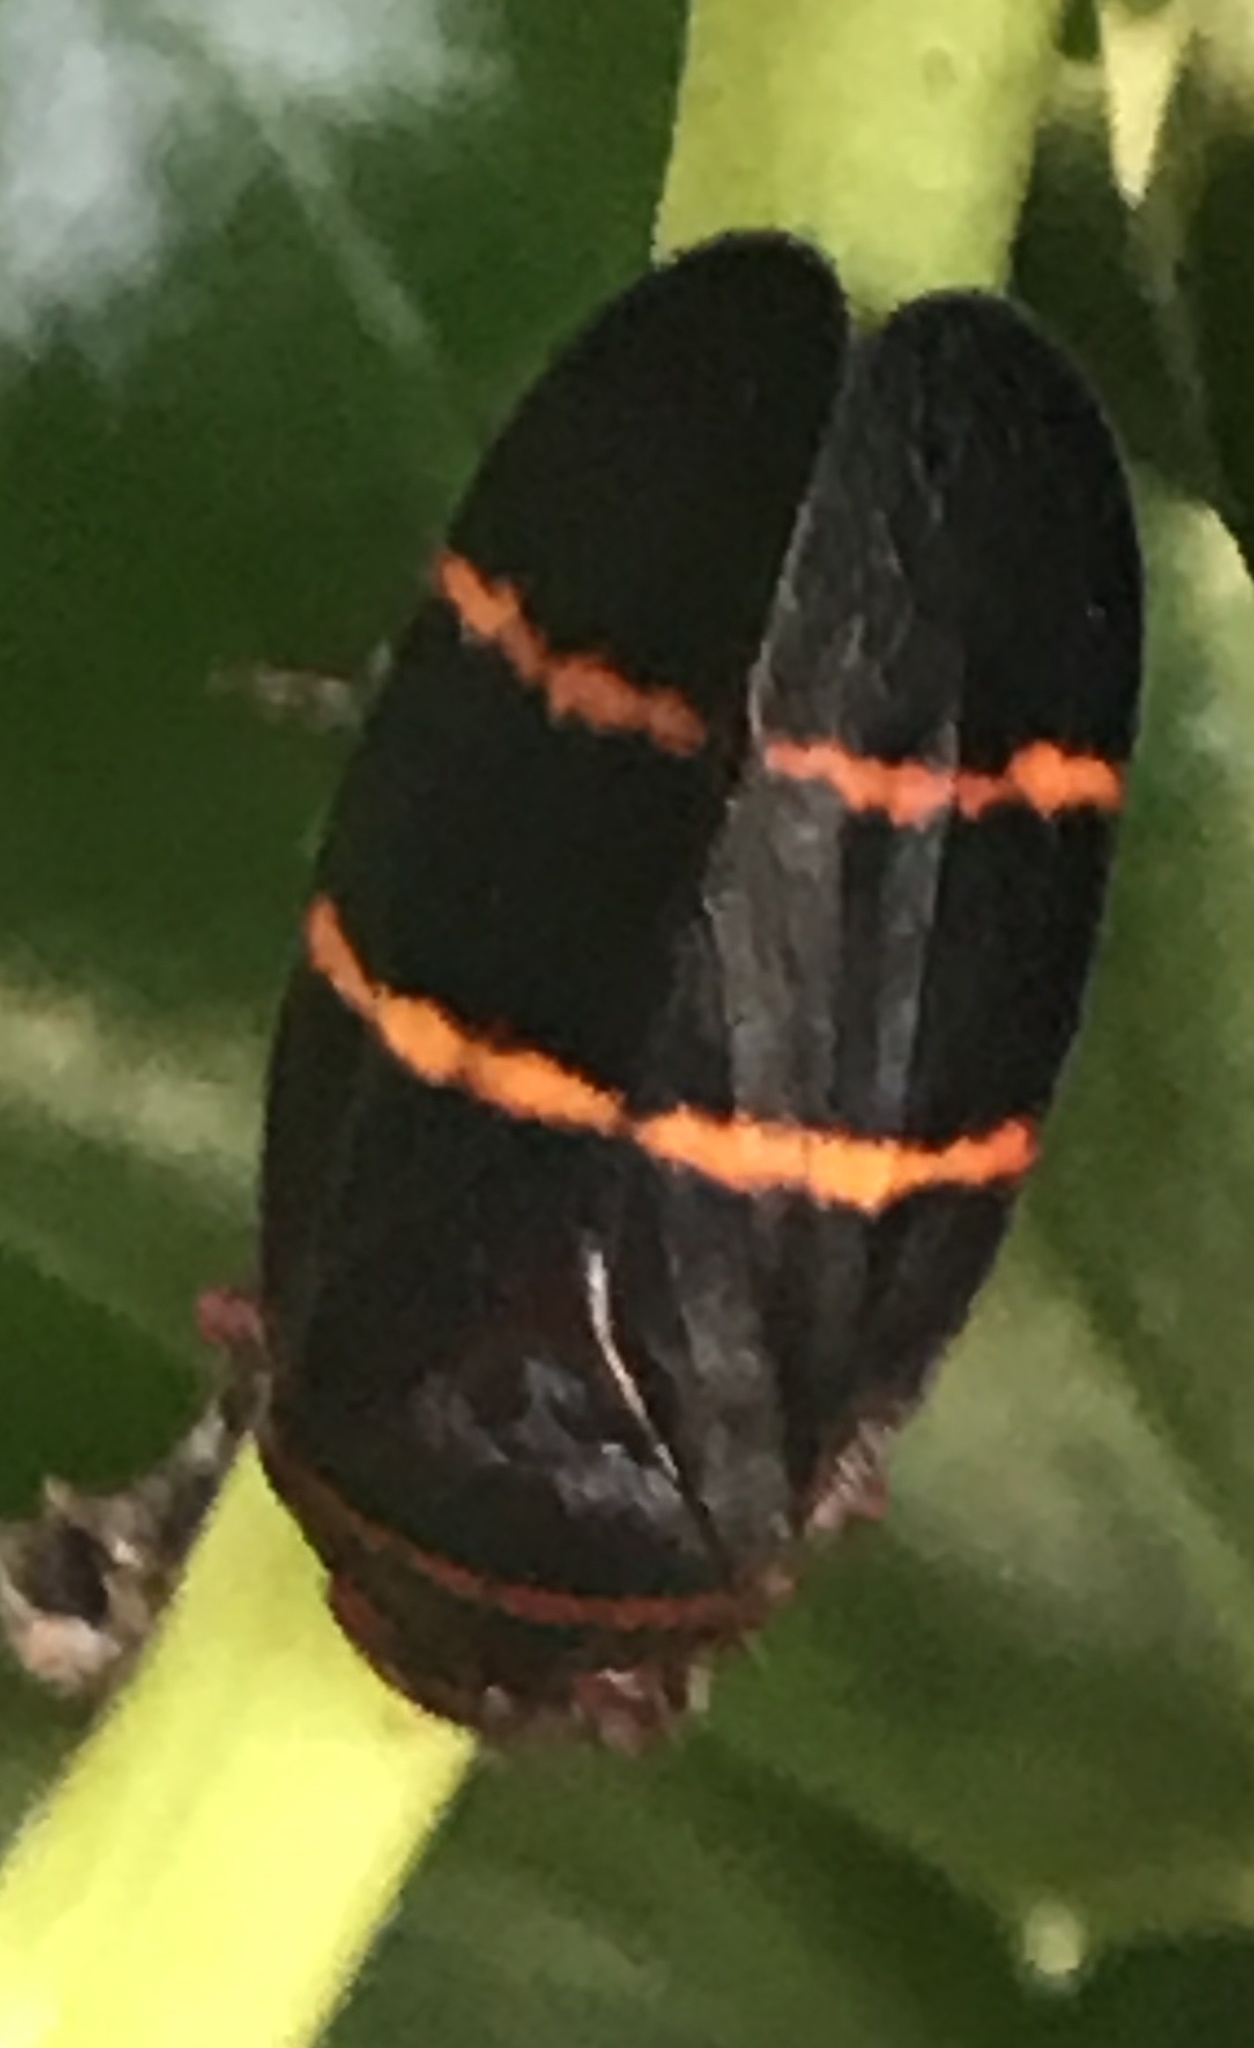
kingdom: Animalia
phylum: Arthropoda
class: Insecta
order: Hemiptera
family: Cercopidae
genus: Prosapia
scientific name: Prosapia bicincta
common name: Twolined spittlebug
